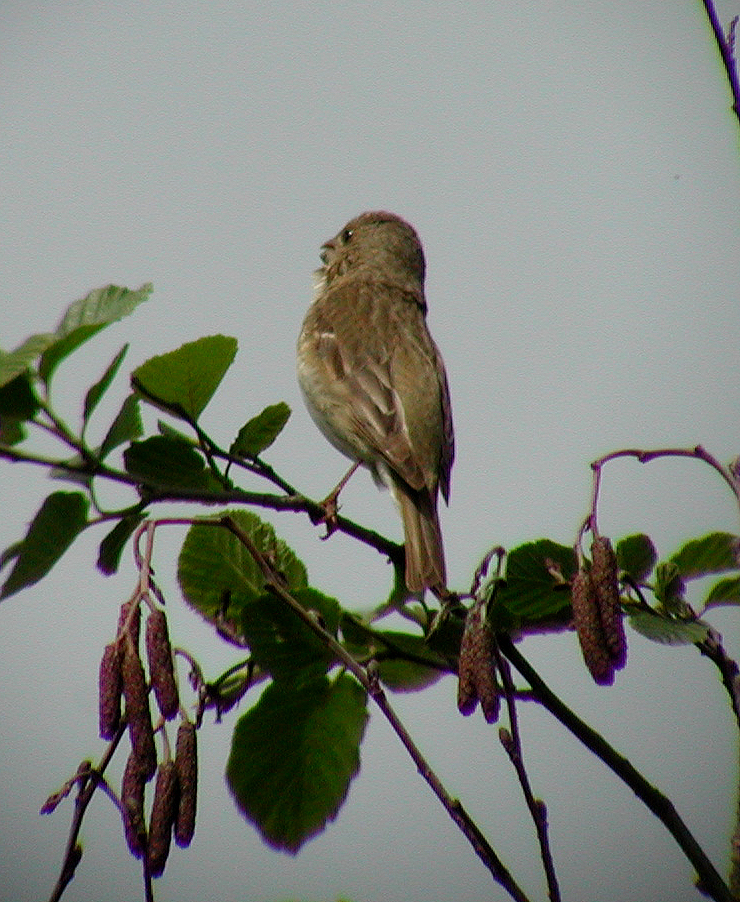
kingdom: Animalia
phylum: Chordata
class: Aves
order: Passeriformes
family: Fringillidae
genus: Carpodacus
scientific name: Carpodacus erythrinus
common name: Common rosefinch
